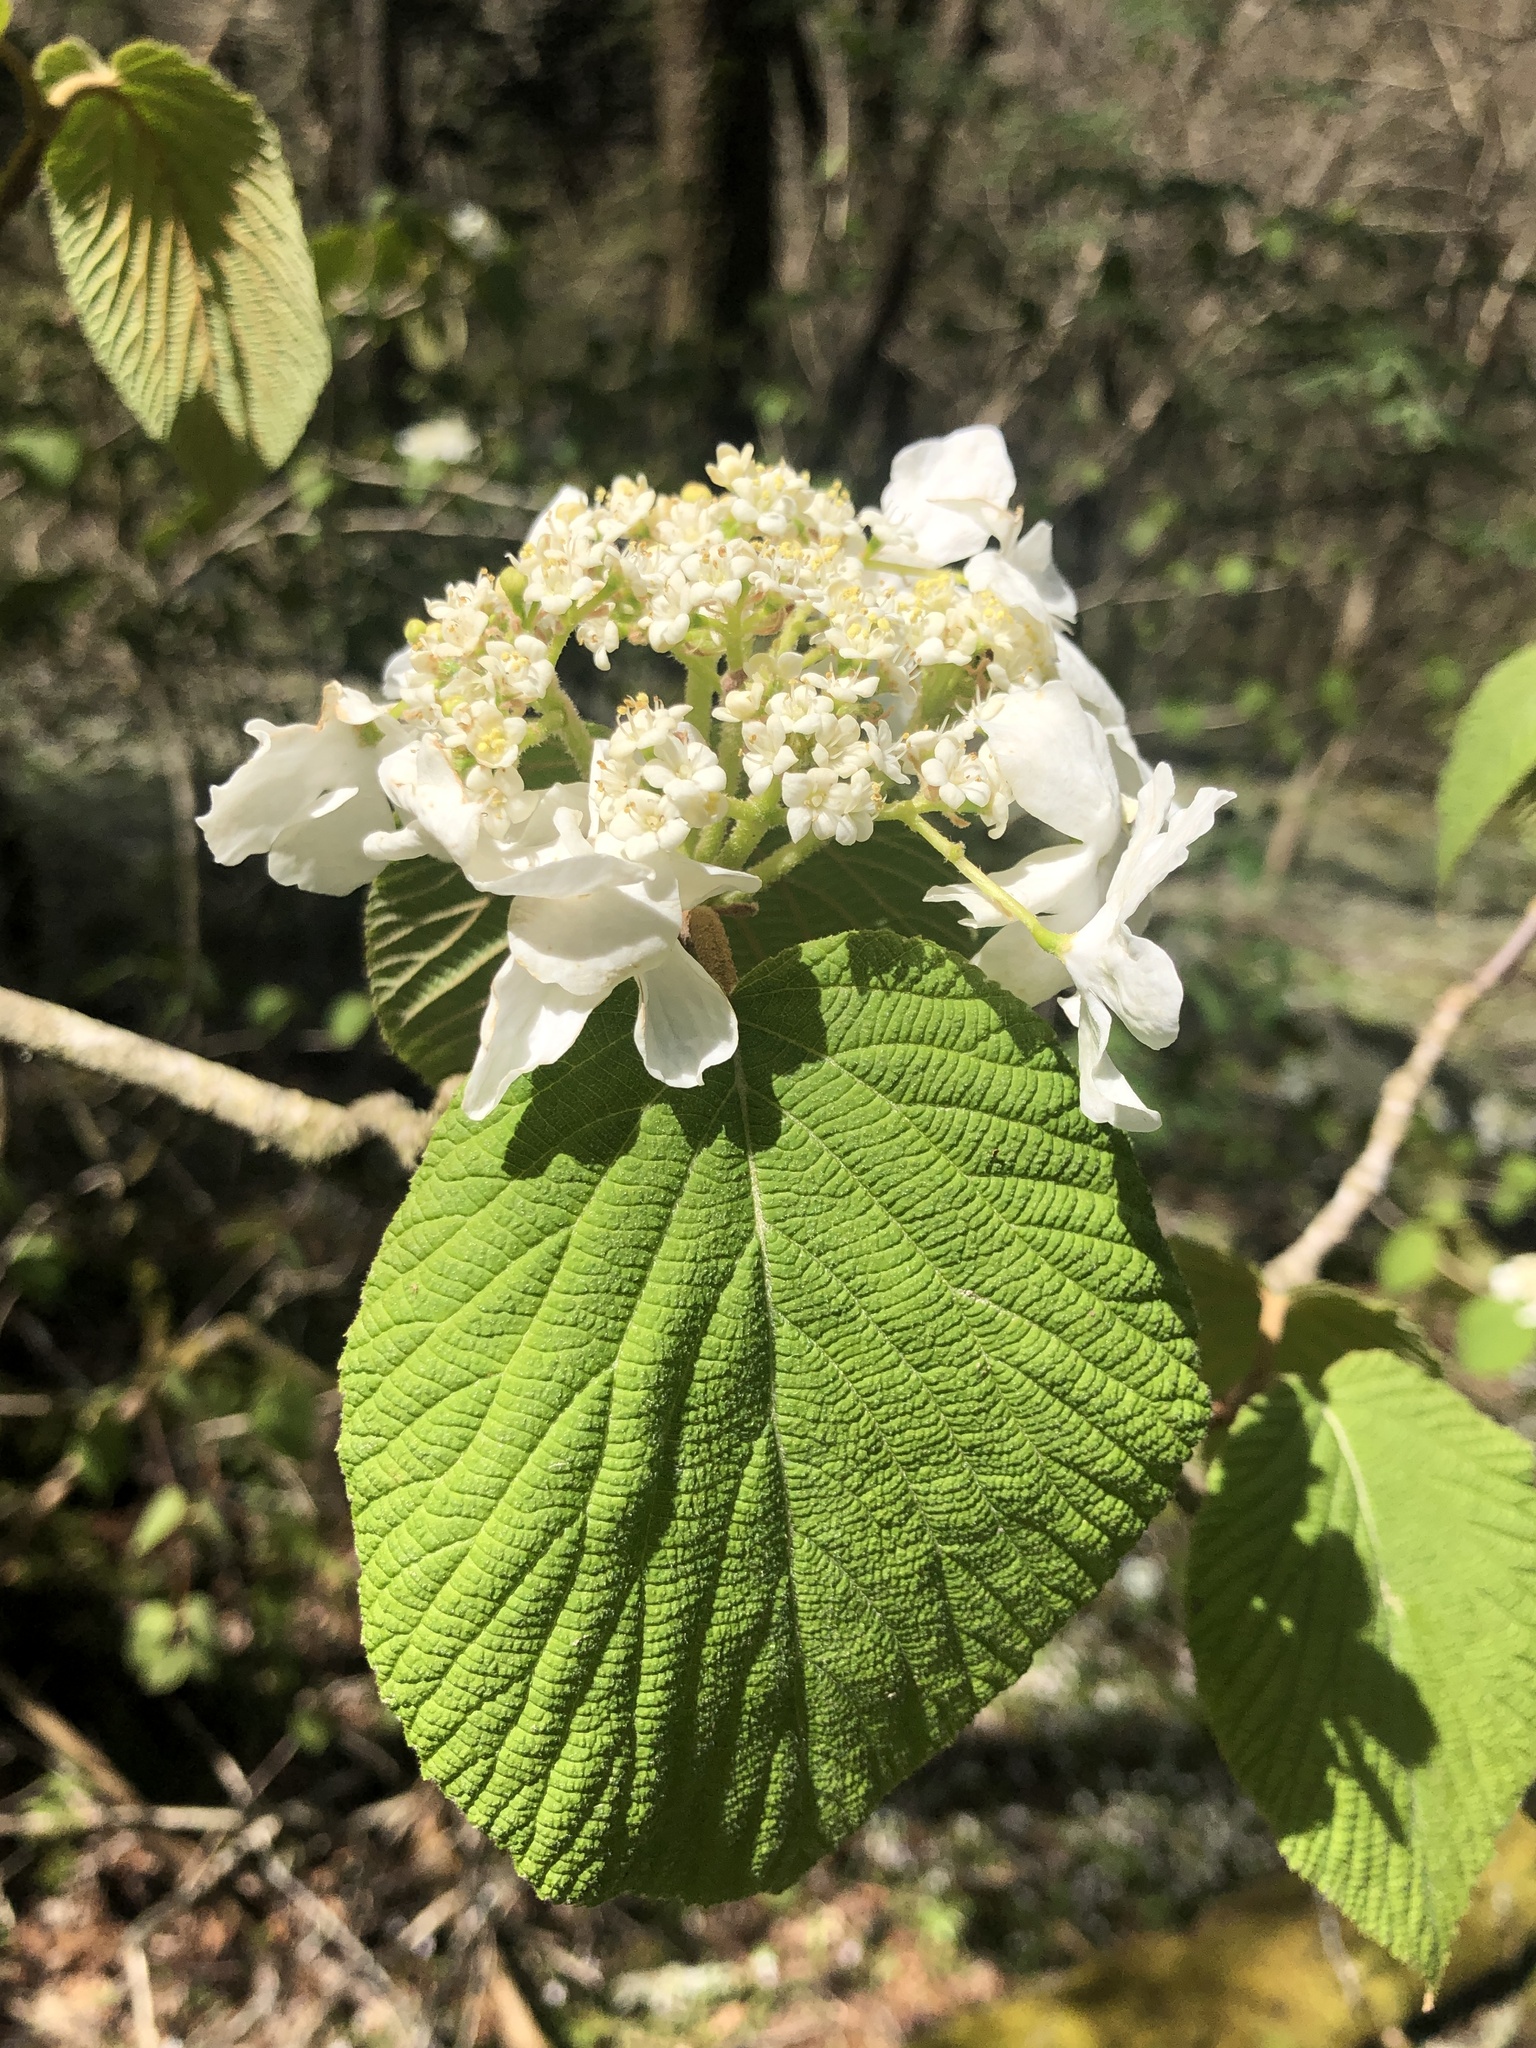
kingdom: Plantae
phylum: Tracheophyta
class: Magnoliopsida
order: Dipsacales
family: Viburnaceae
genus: Viburnum
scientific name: Viburnum lantanoides
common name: Hobblebush
